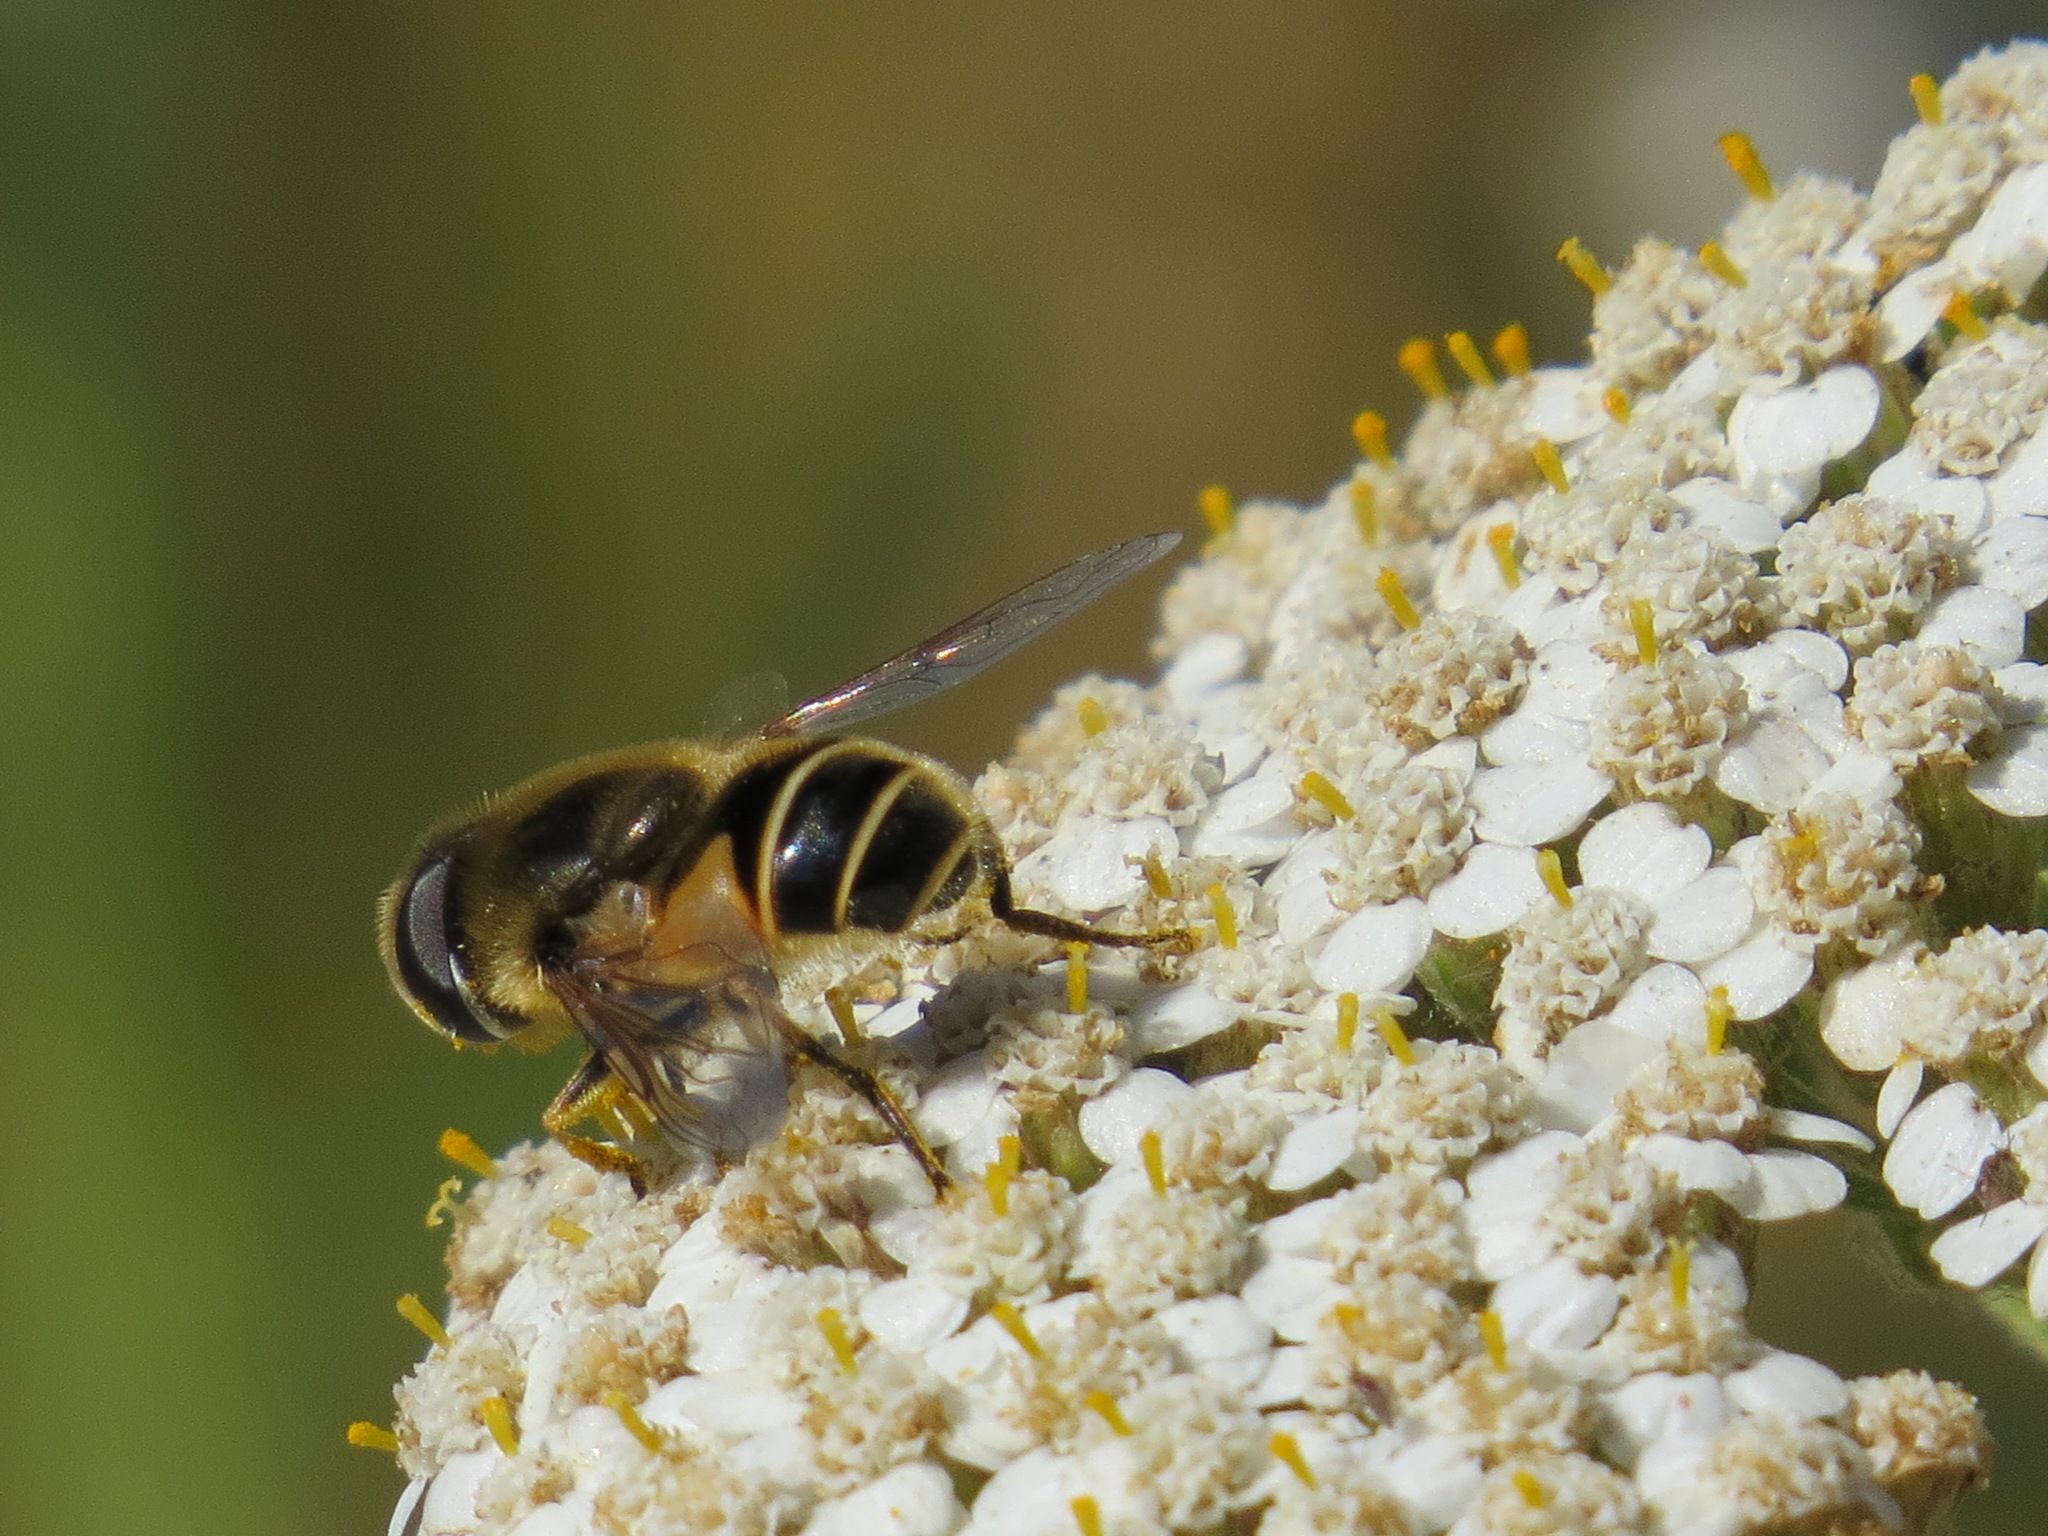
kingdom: Animalia
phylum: Arthropoda
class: Insecta
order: Diptera
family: Syrphidae
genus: Eristalis
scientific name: Eristalis hirta
